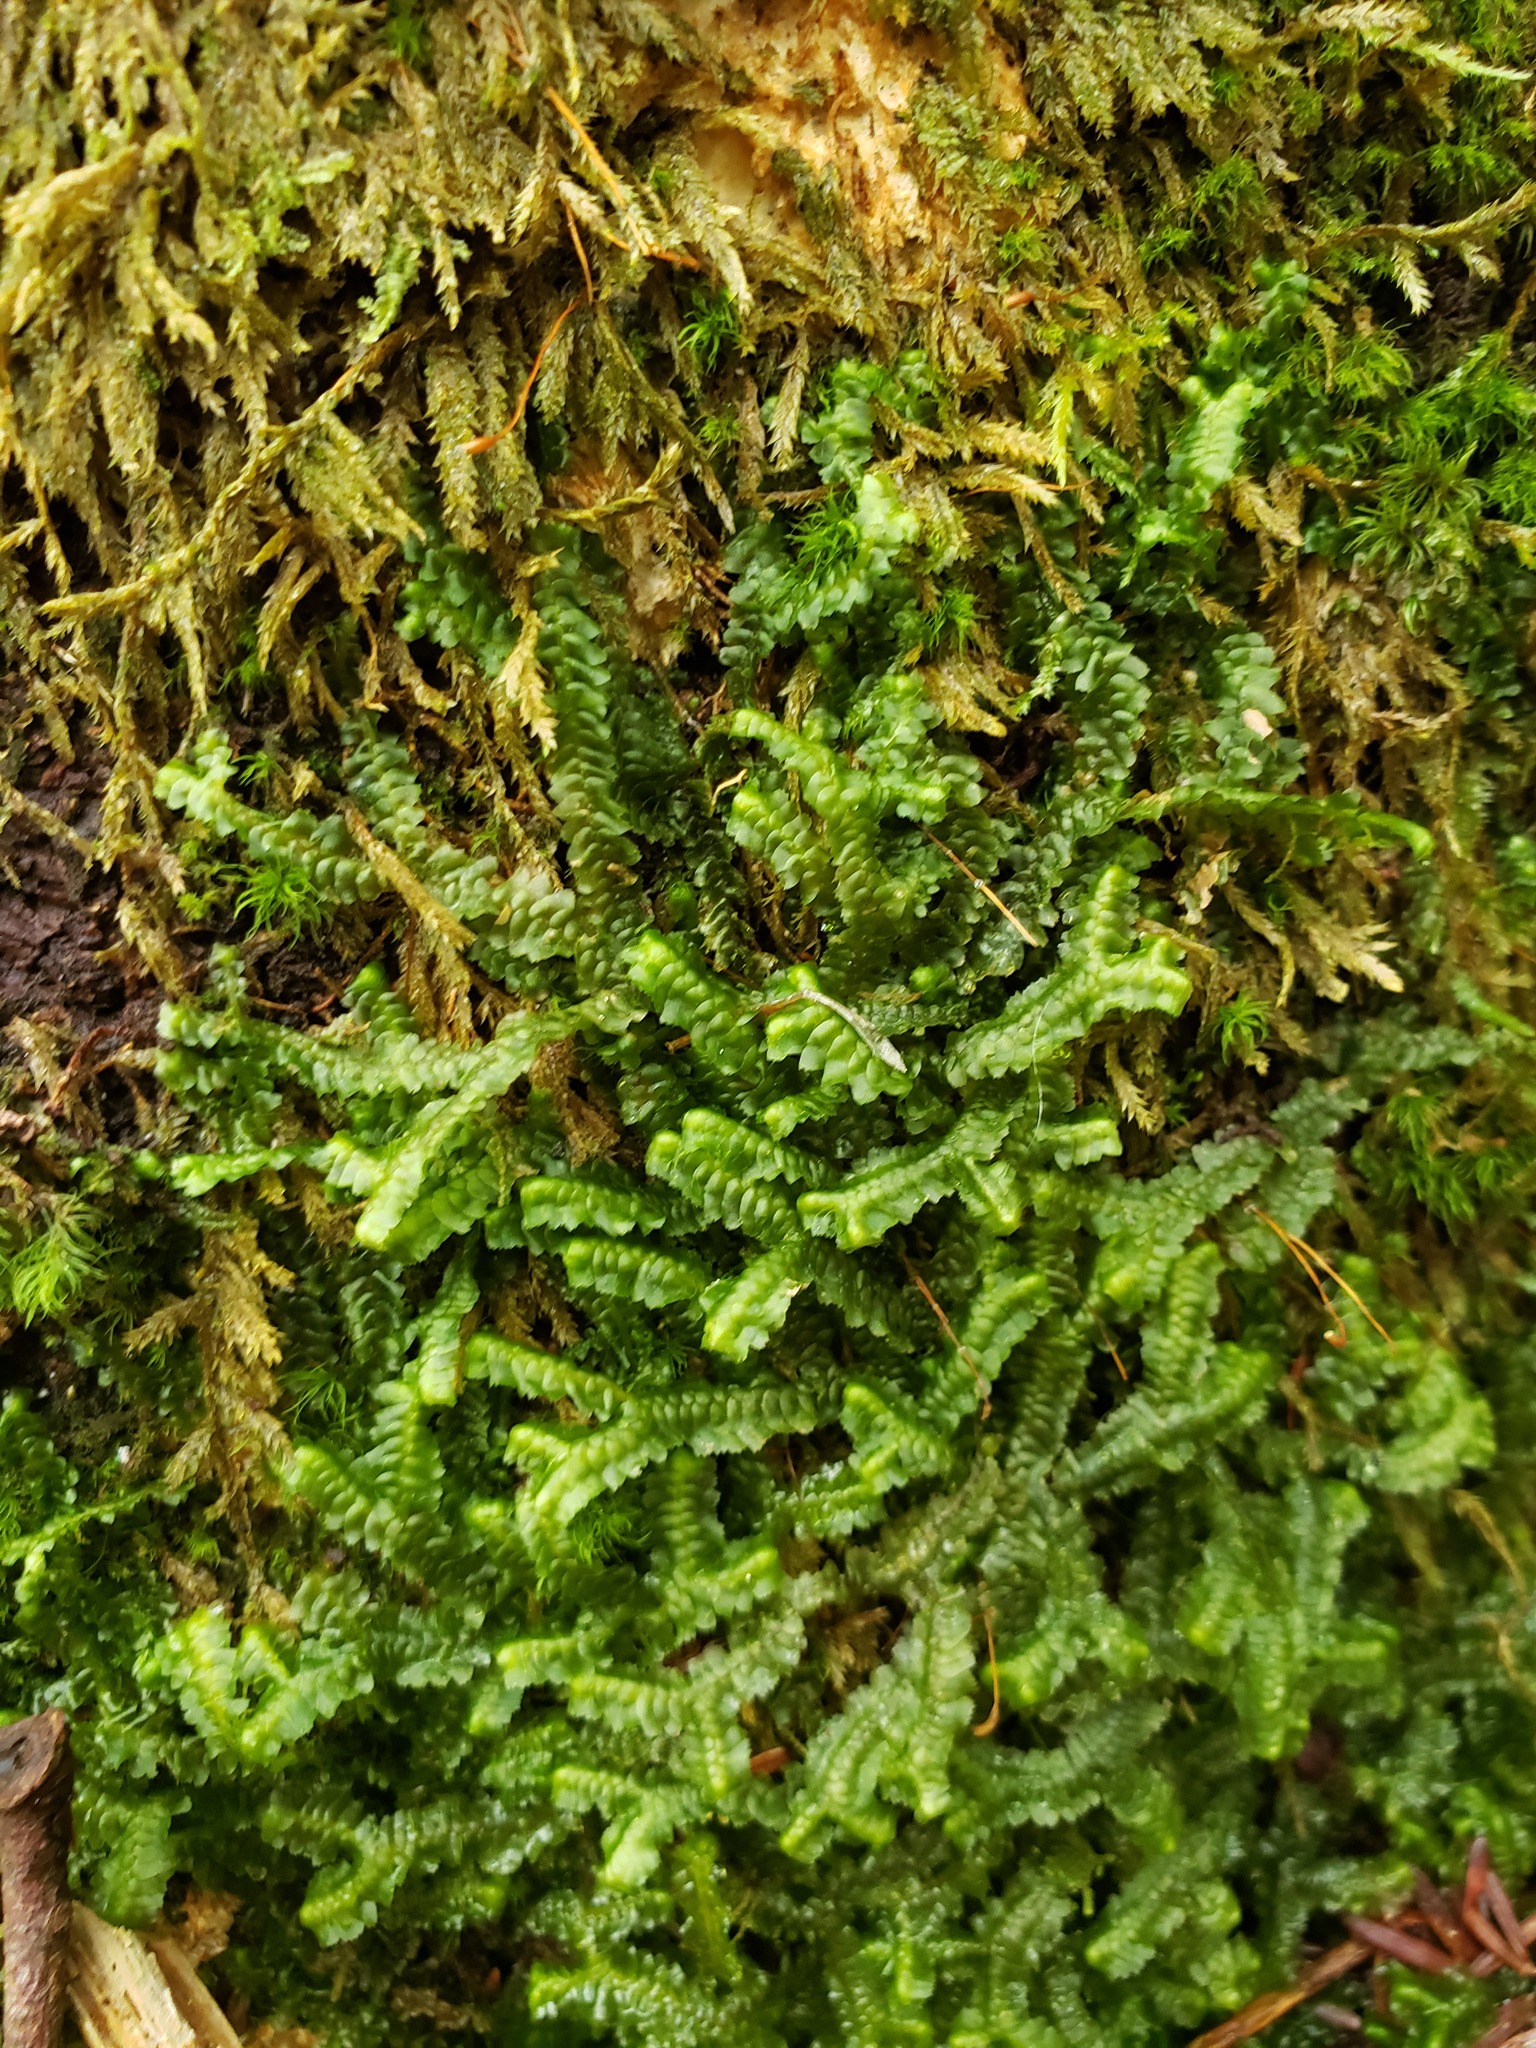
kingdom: Plantae
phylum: Marchantiophyta
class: Jungermanniopsida
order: Jungermanniales
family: Lepidoziaceae
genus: Bazzania
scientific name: Bazzania trilobata
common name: Three-lobed whipwort
